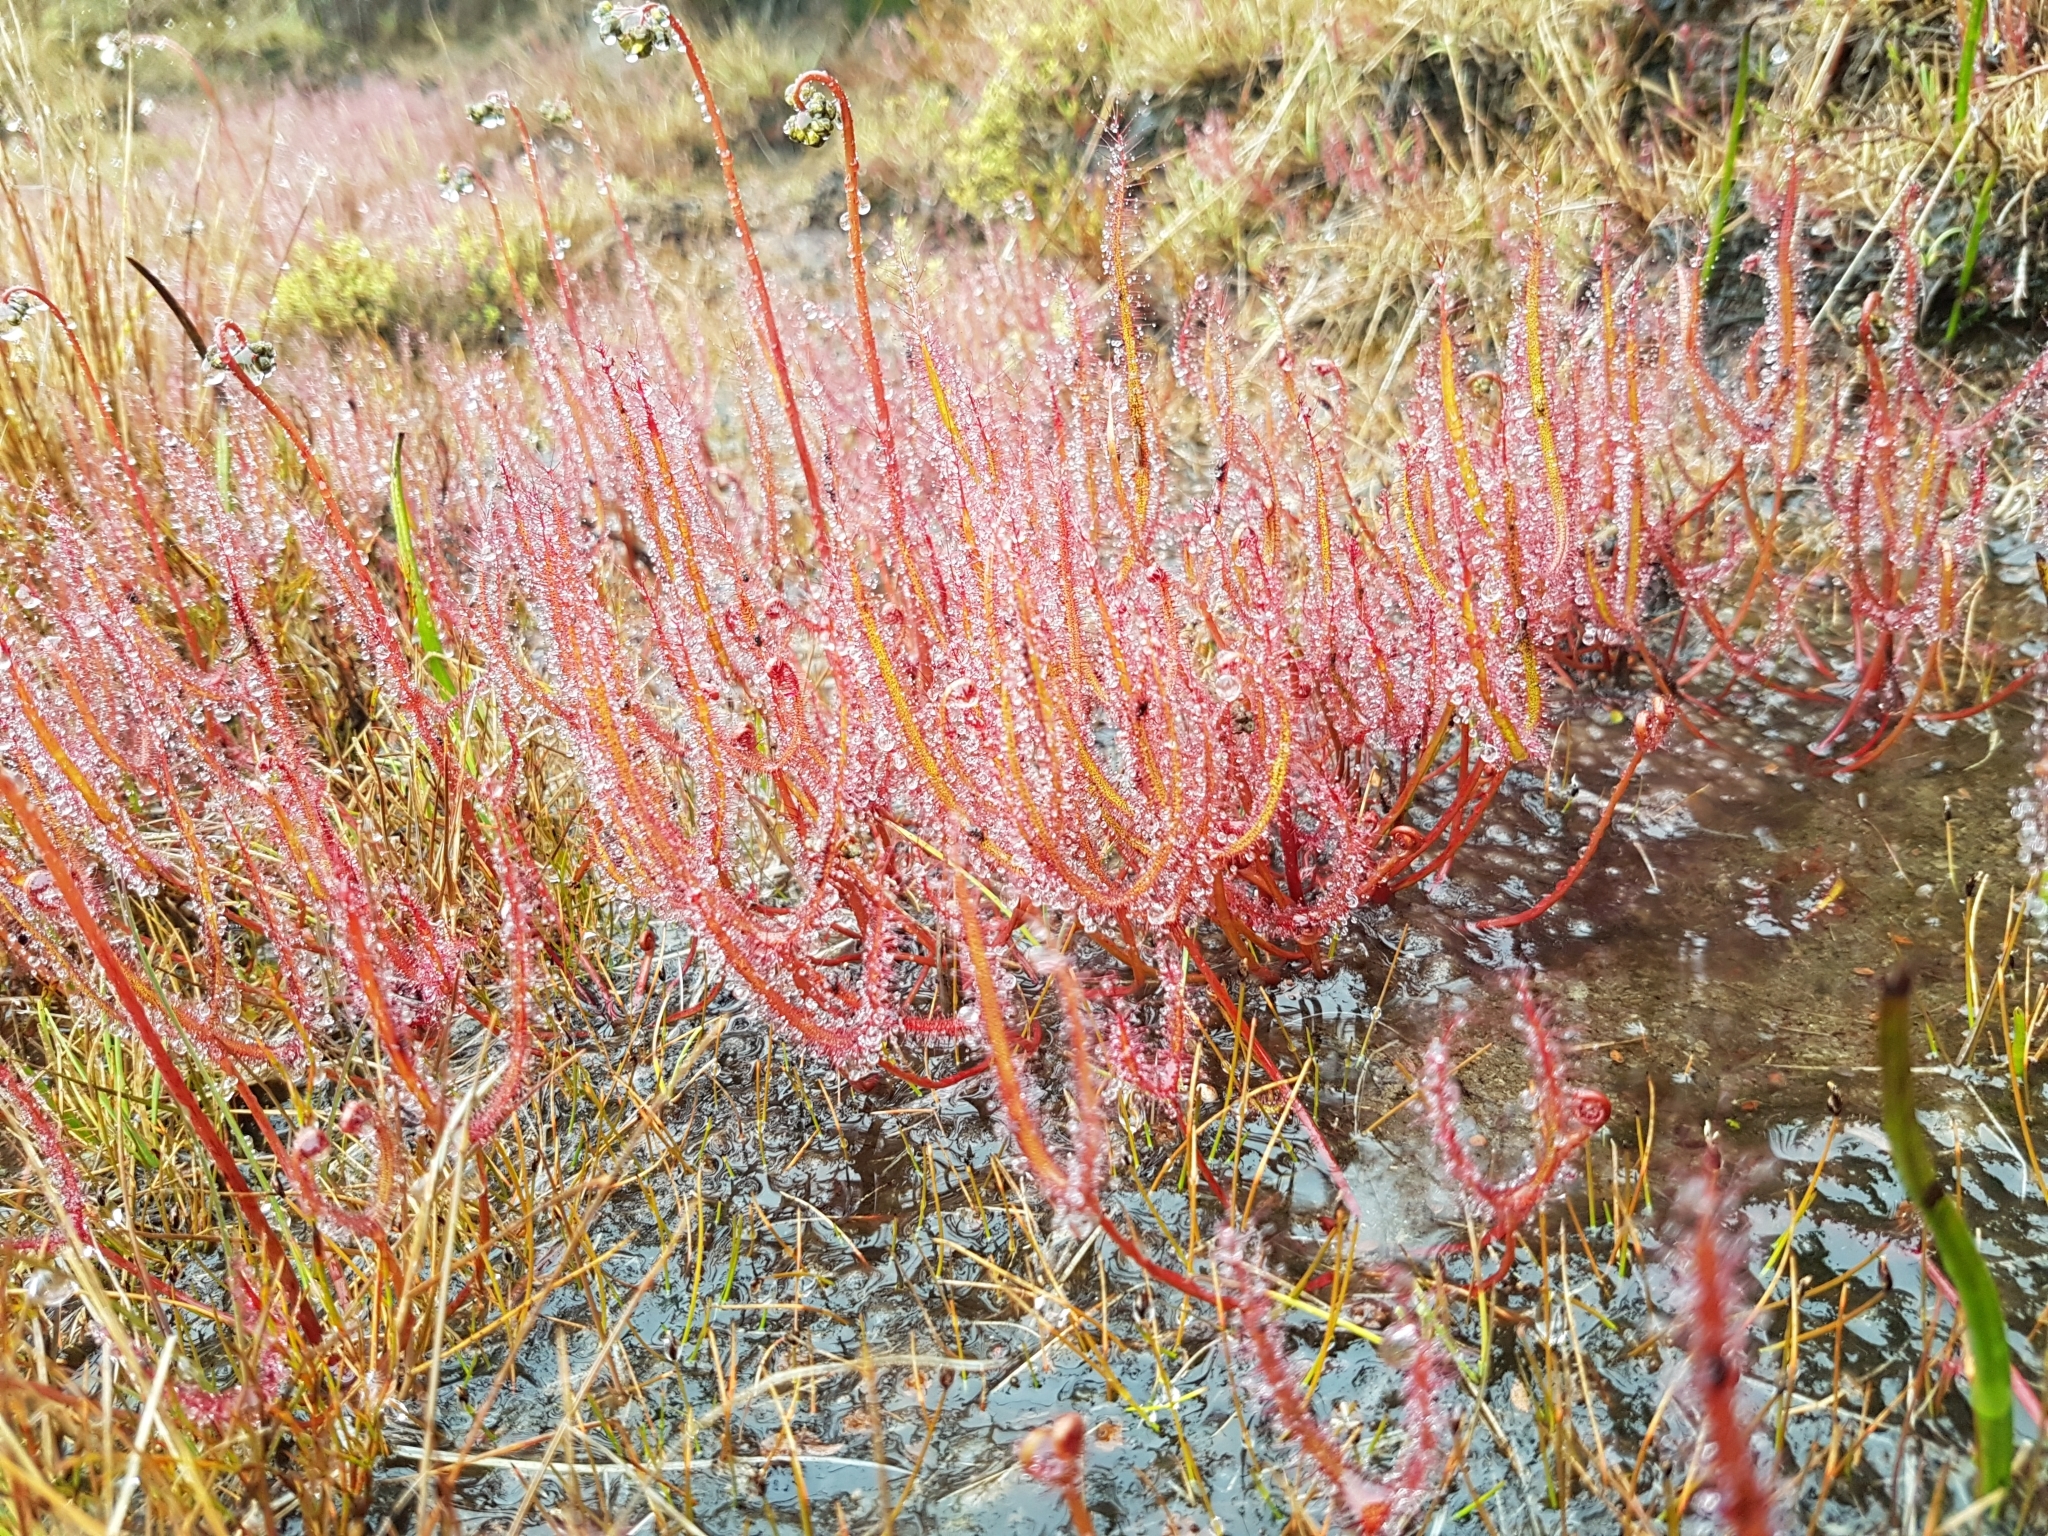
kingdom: Plantae
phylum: Tracheophyta
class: Magnoliopsida
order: Caryophyllales
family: Droseraceae
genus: Drosera
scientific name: Drosera binata
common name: Forked sundew
